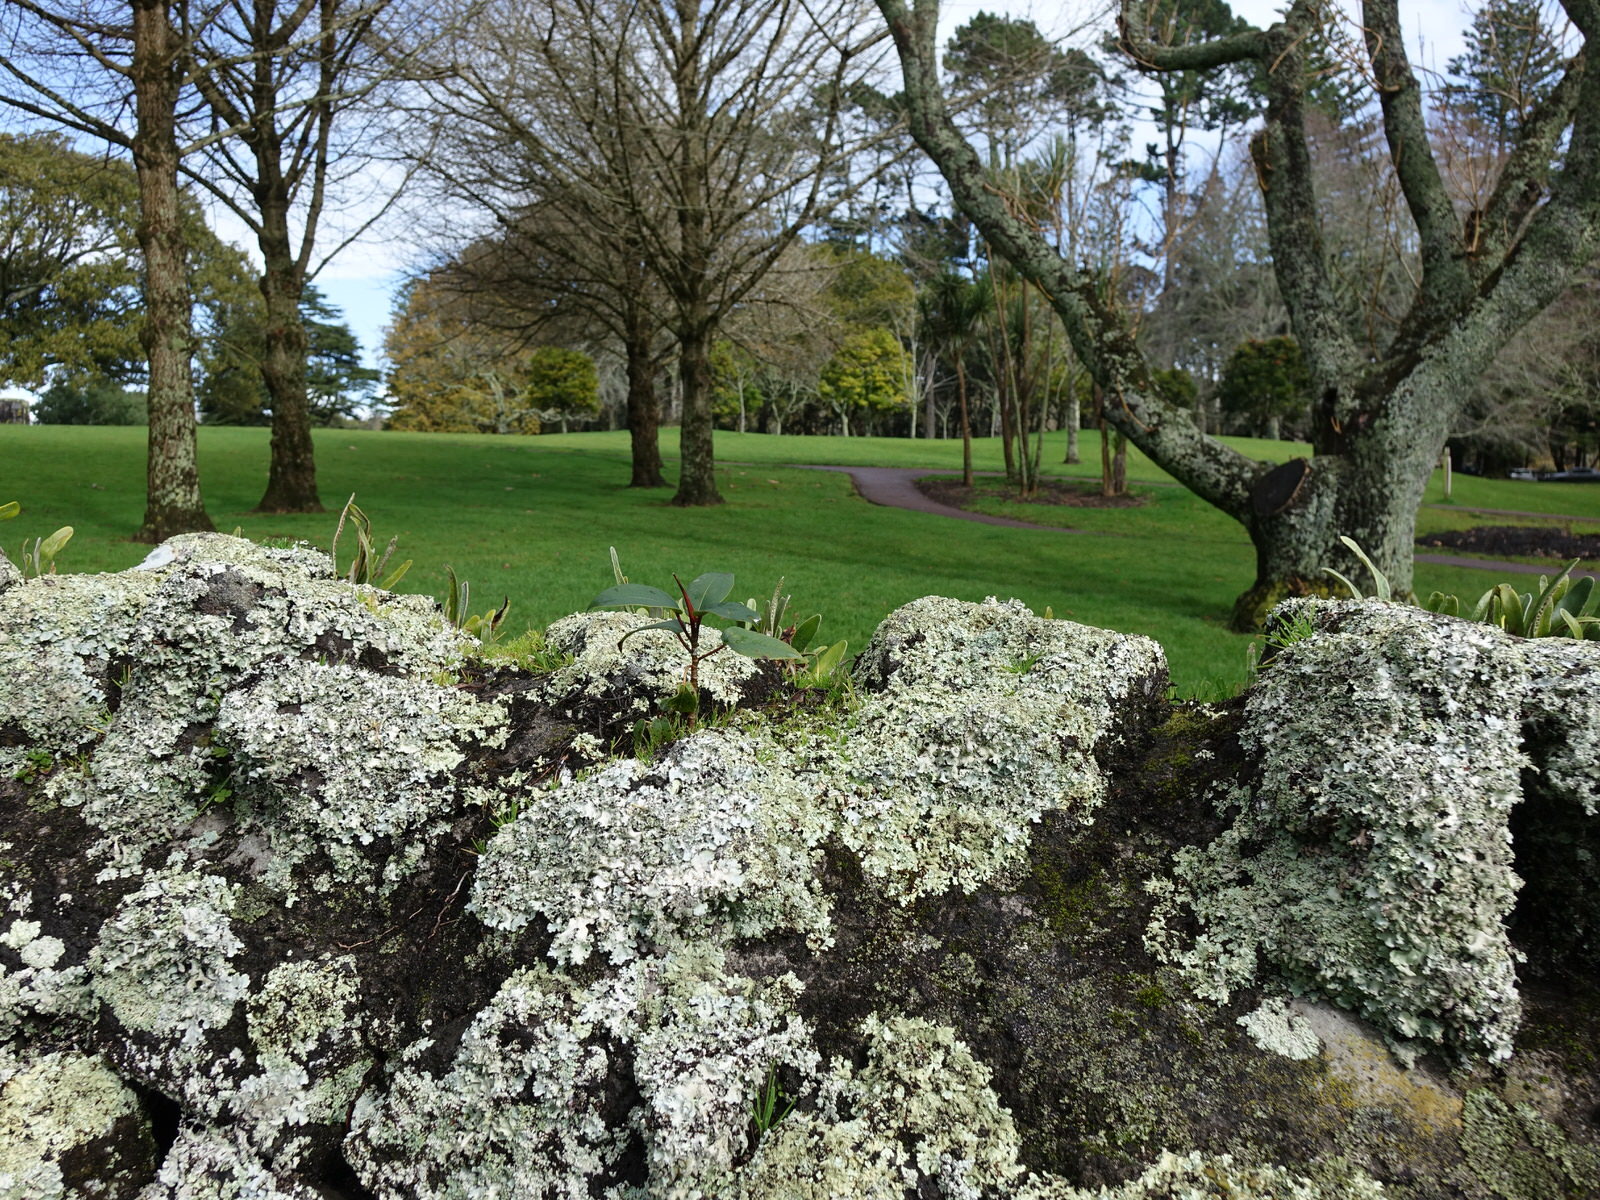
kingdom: Plantae
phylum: Tracheophyta
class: Magnoliopsida
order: Rosales
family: Moraceae
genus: Ficus
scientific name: Ficus macrophylla
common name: Moreton bay fig
